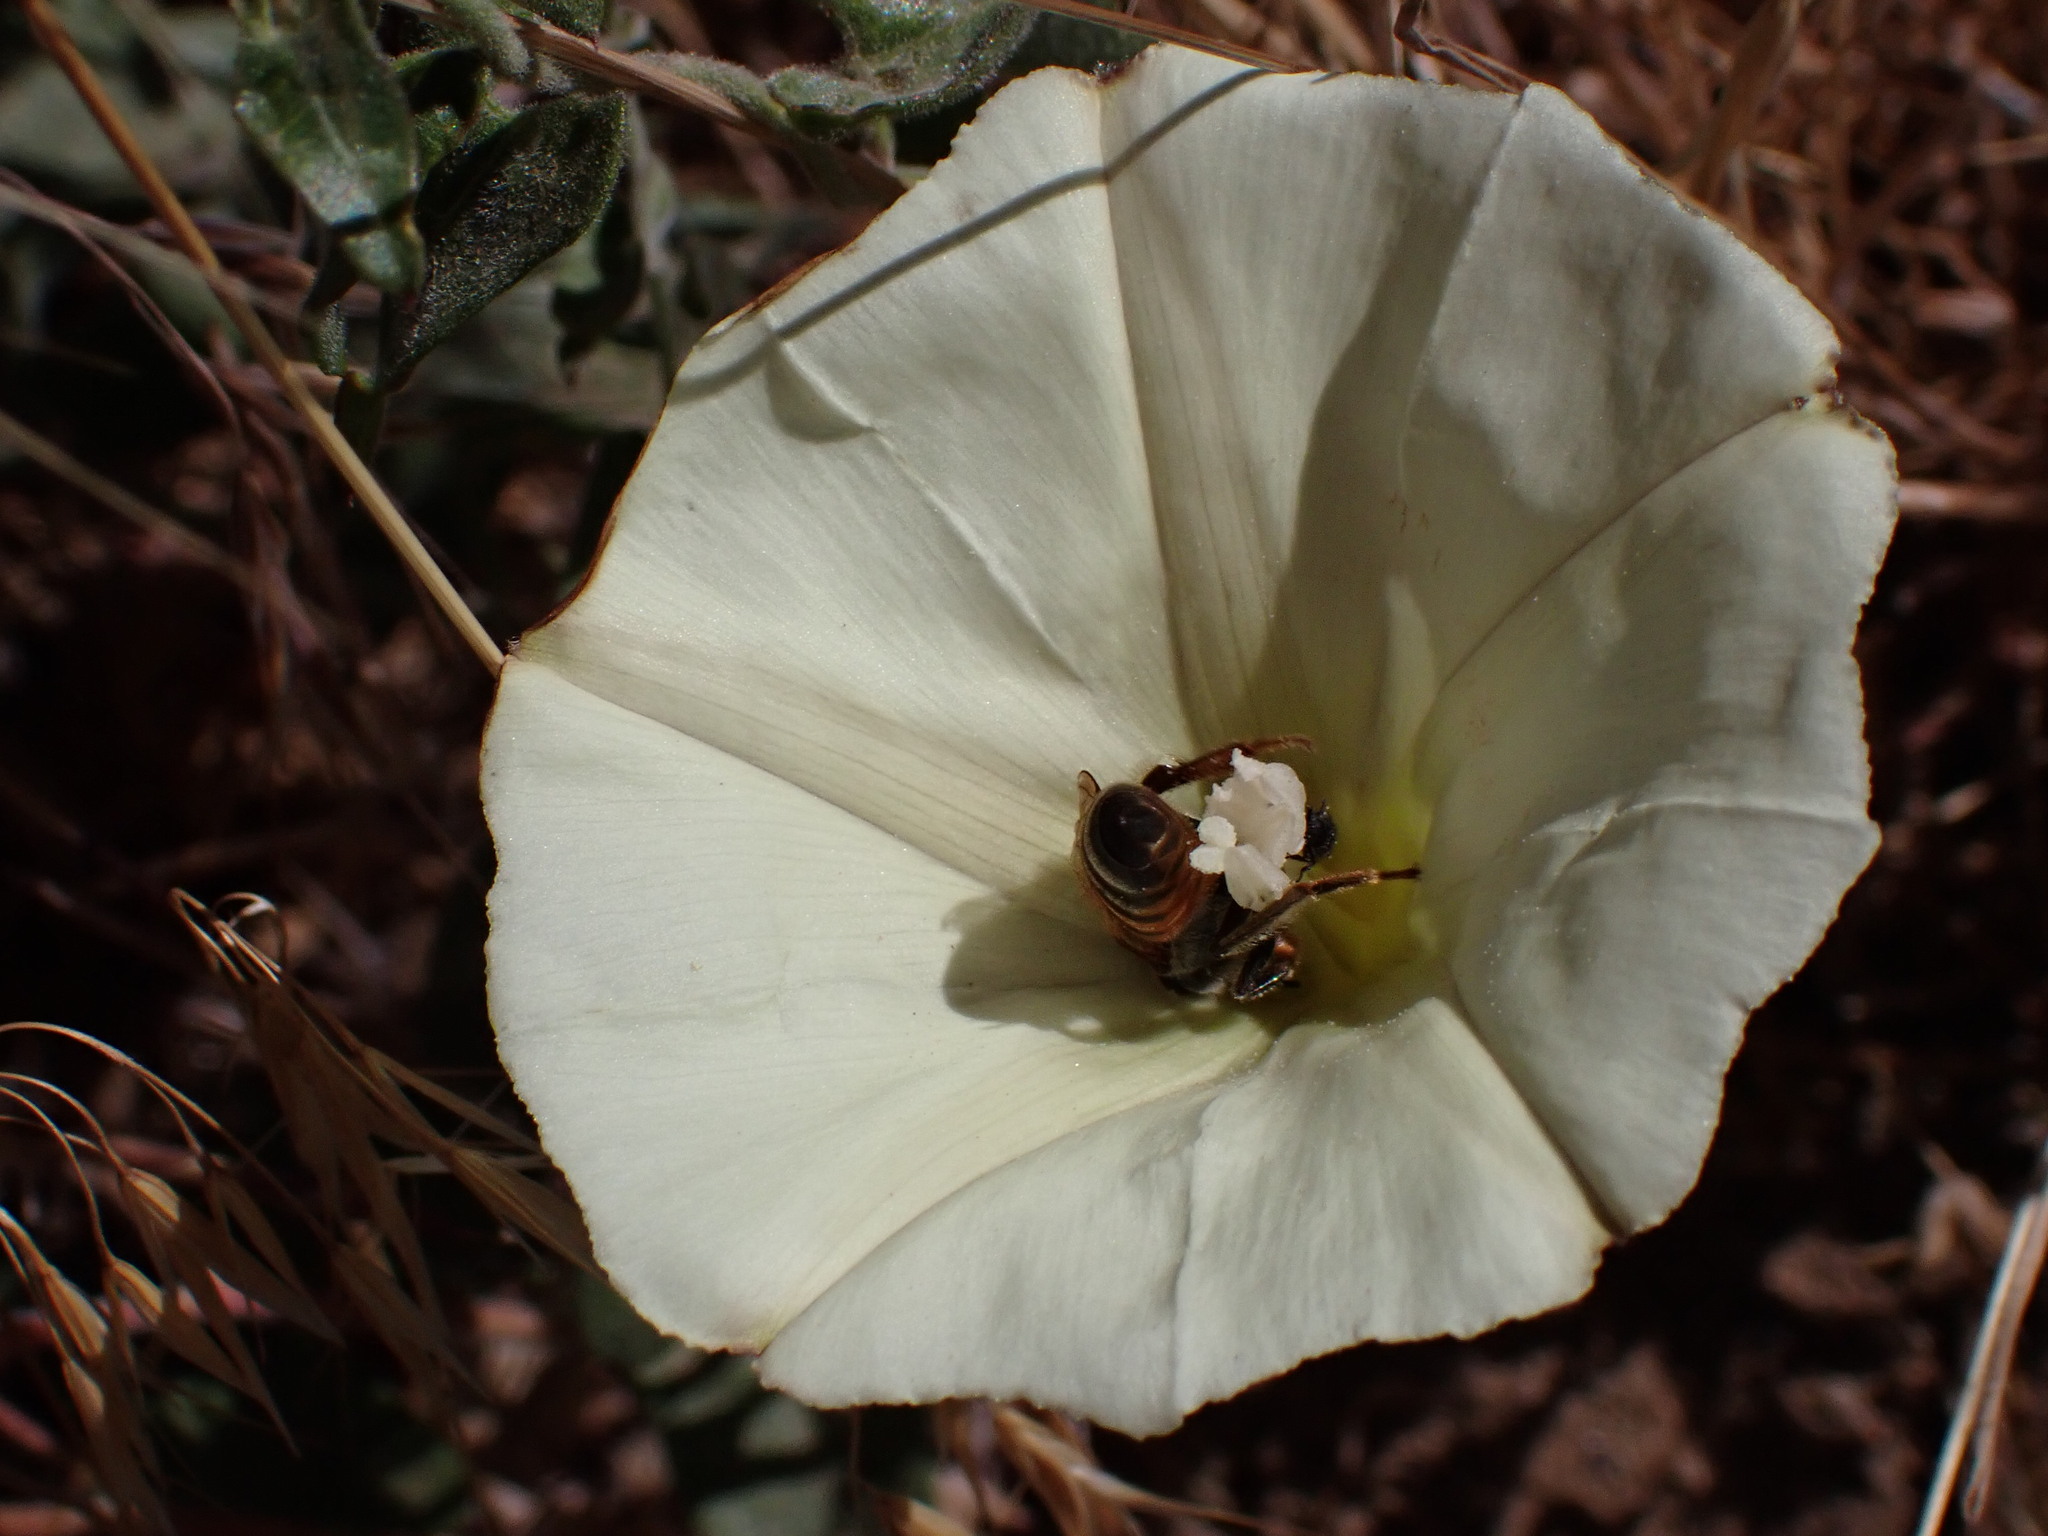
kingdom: Animalia
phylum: Arthropoda
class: Insecta
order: Hymenoptera
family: Apidae
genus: Apis
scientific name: Apis mellifera
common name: Honey bee
